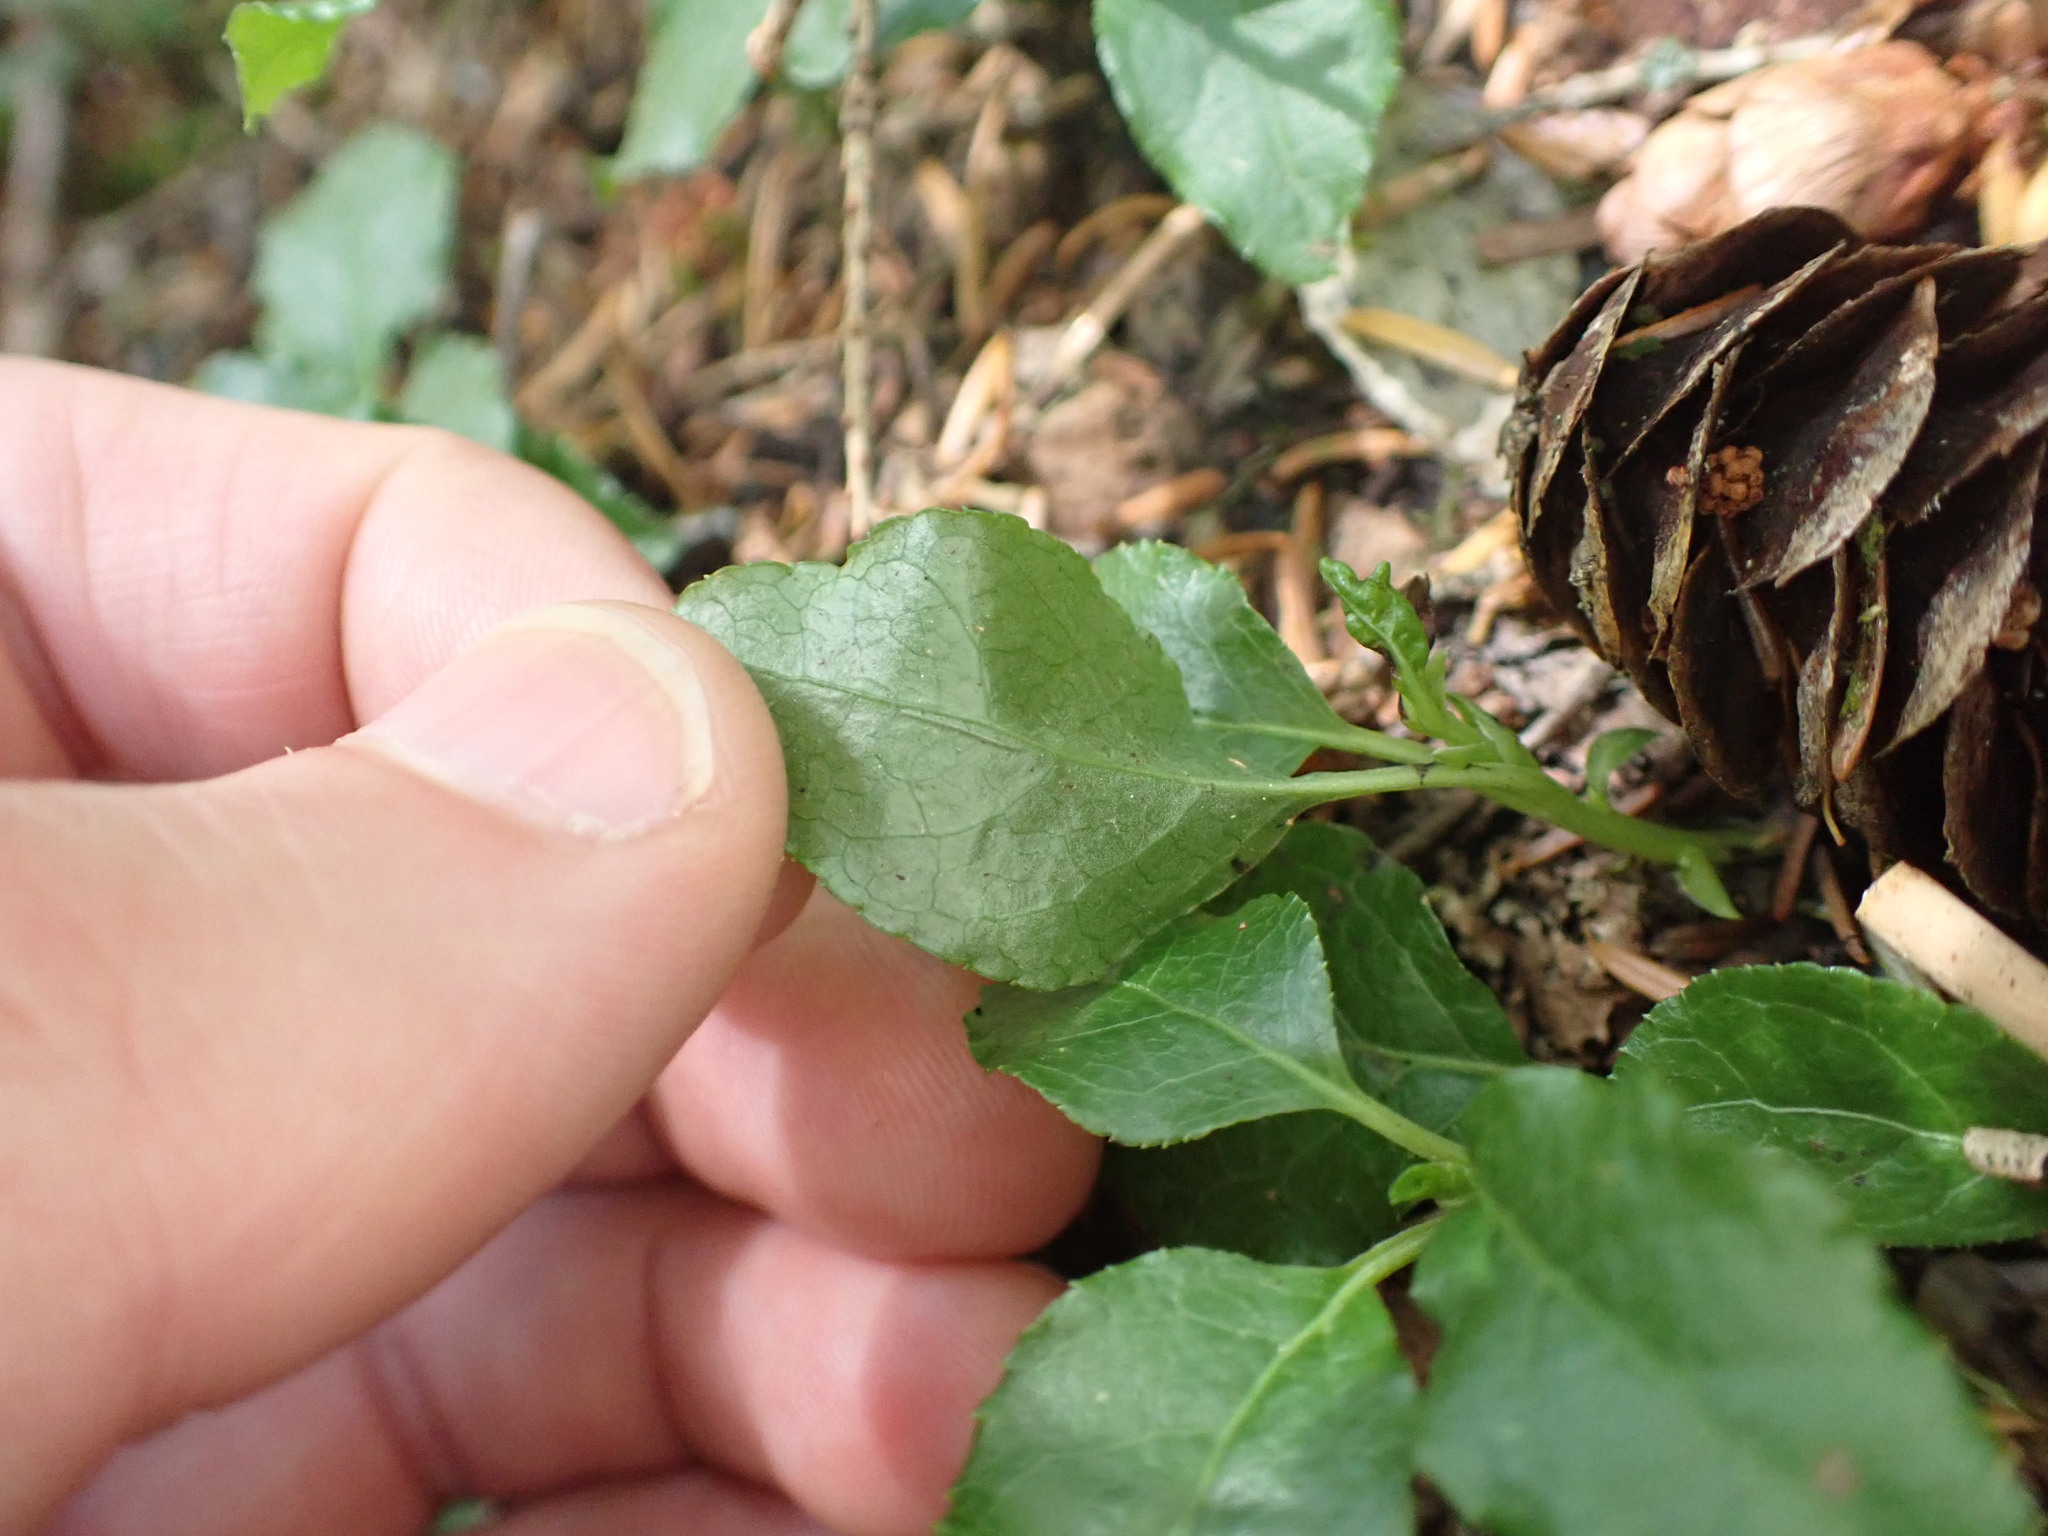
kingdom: Plantae
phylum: Tracheophyta
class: Magnoliopsida
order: Ericales
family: Ericaceae
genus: Orthilia
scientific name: Orthilia secunda
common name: One-sided orthilia
